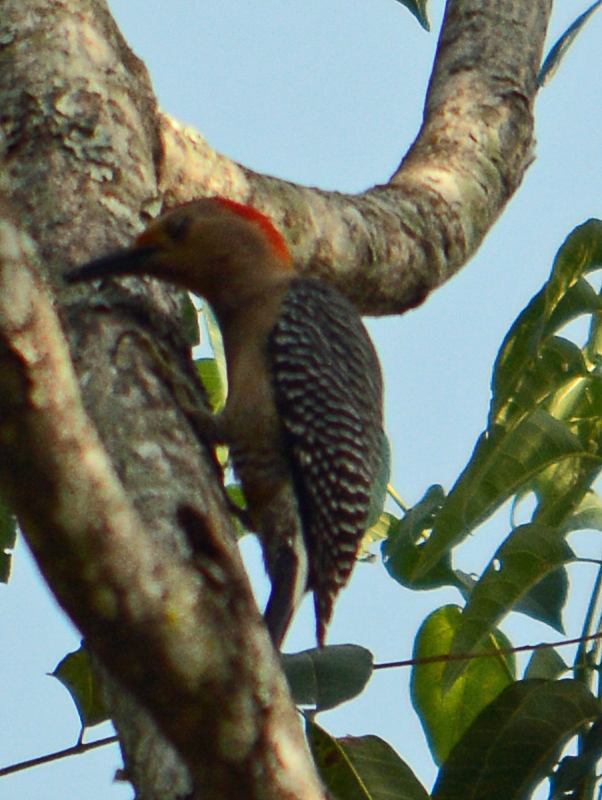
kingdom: Animalia
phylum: Chordata
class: Aves
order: Piciformes
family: Picidae
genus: Melanerpes
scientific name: Melanerpes aurifrons
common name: Golden-fronted woodpecker
